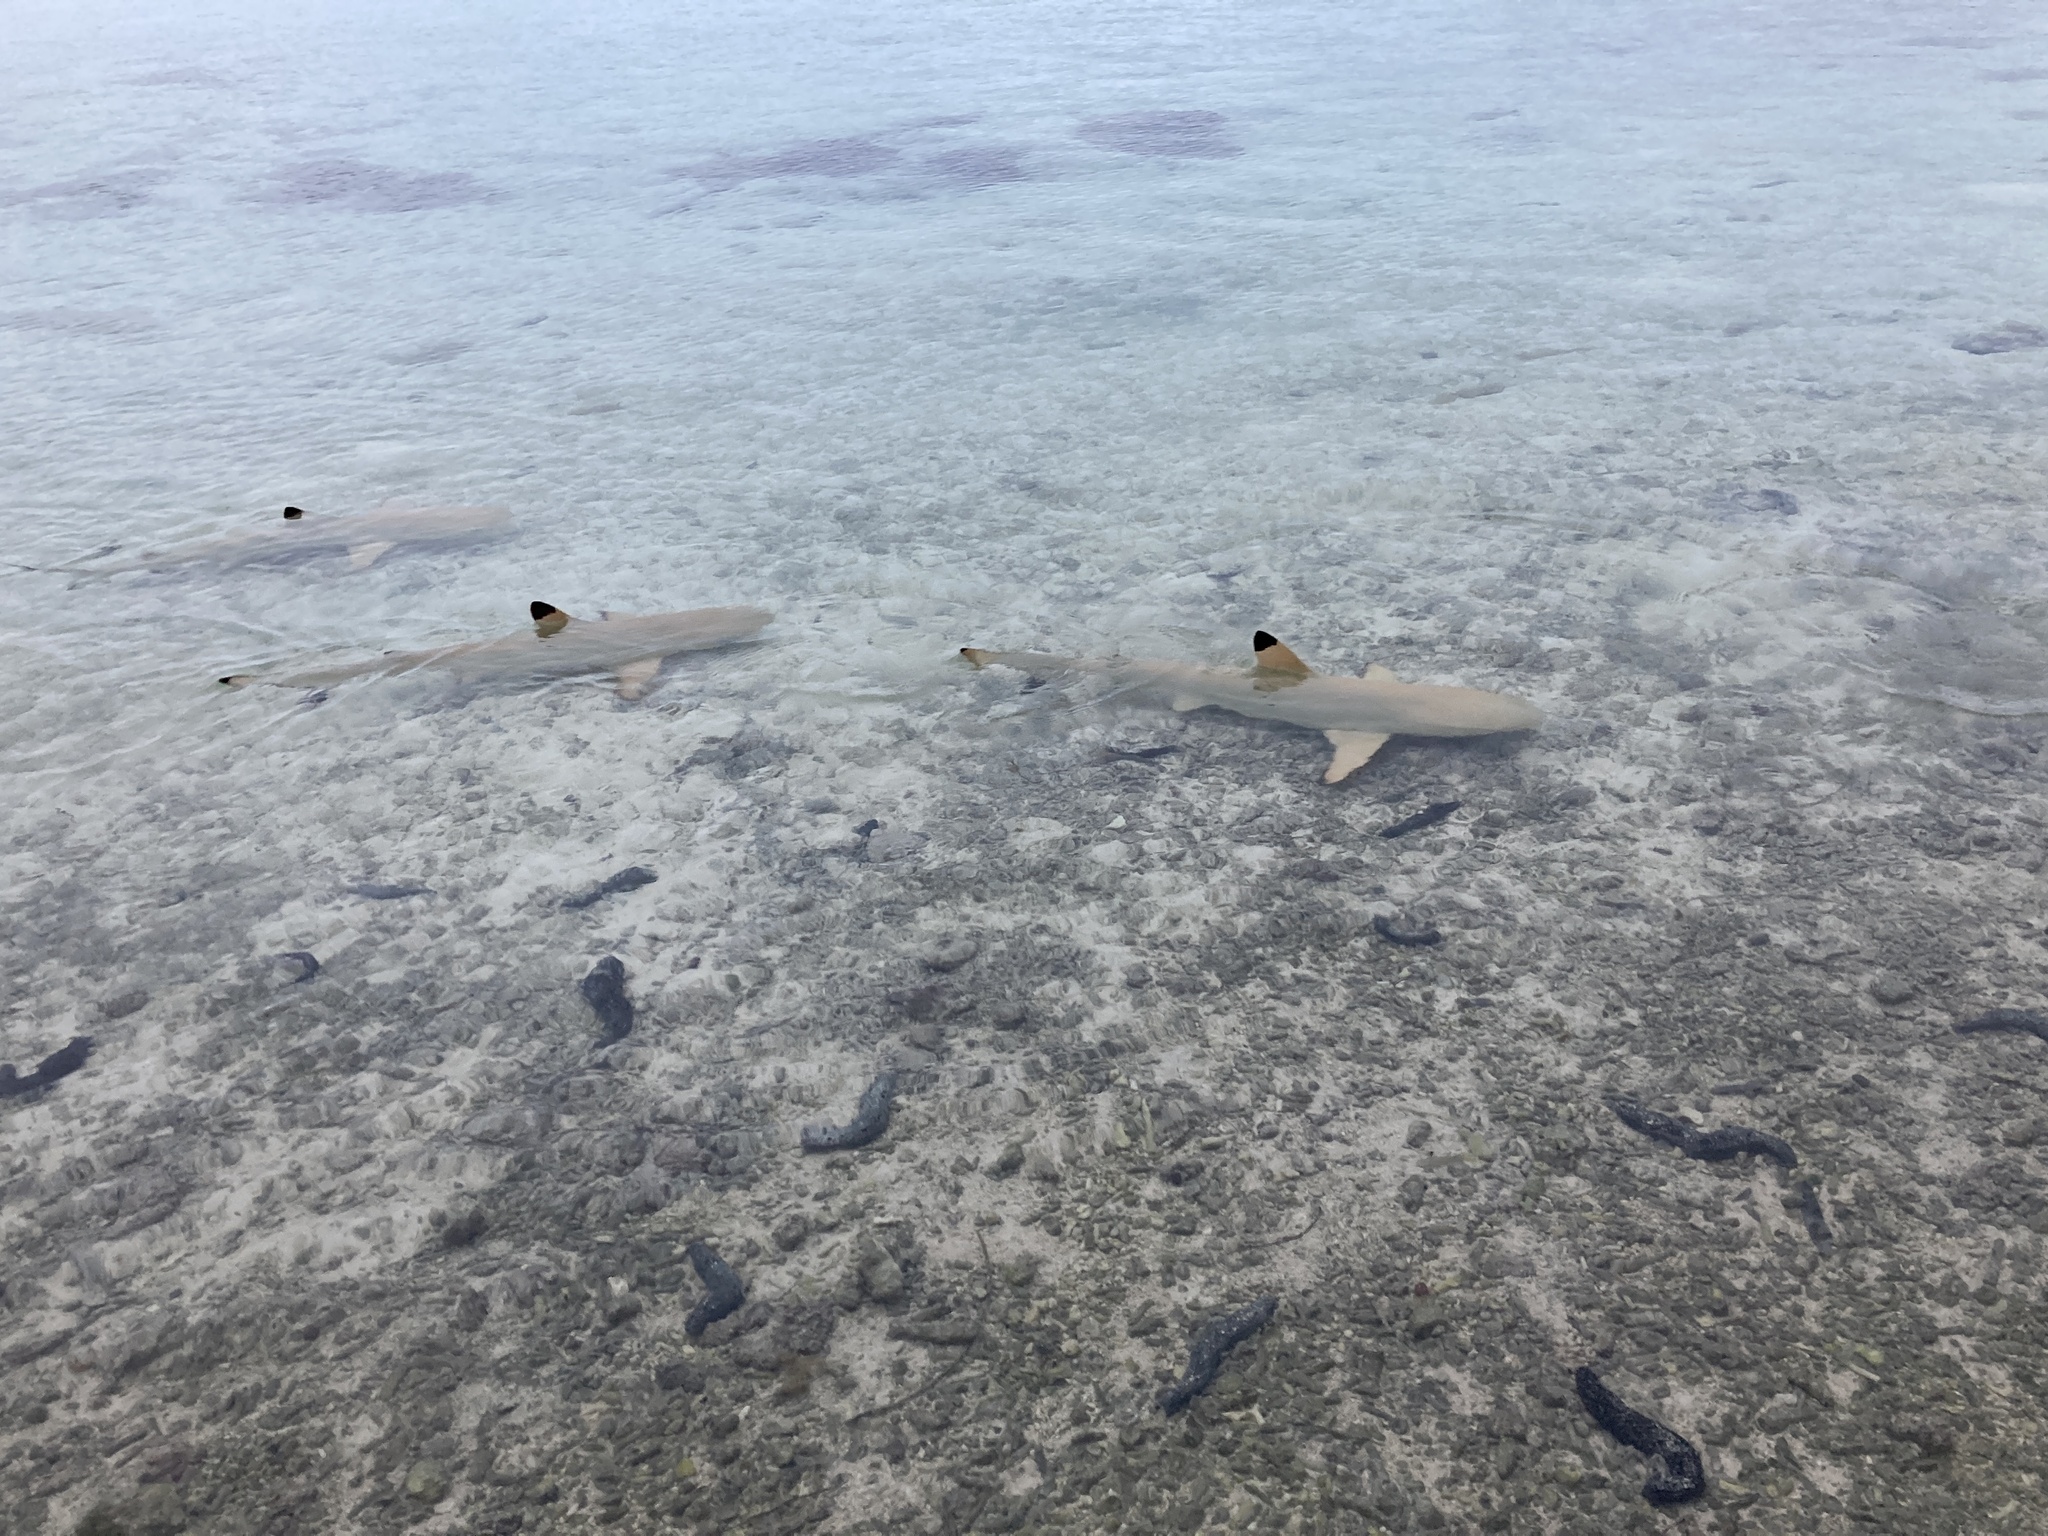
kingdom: Animalia
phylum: Echinodermata
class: Holothuroidea
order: Holothuriida
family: Holothuriidae
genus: Holothuria
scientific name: Holothuria atra
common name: Lollyfish
